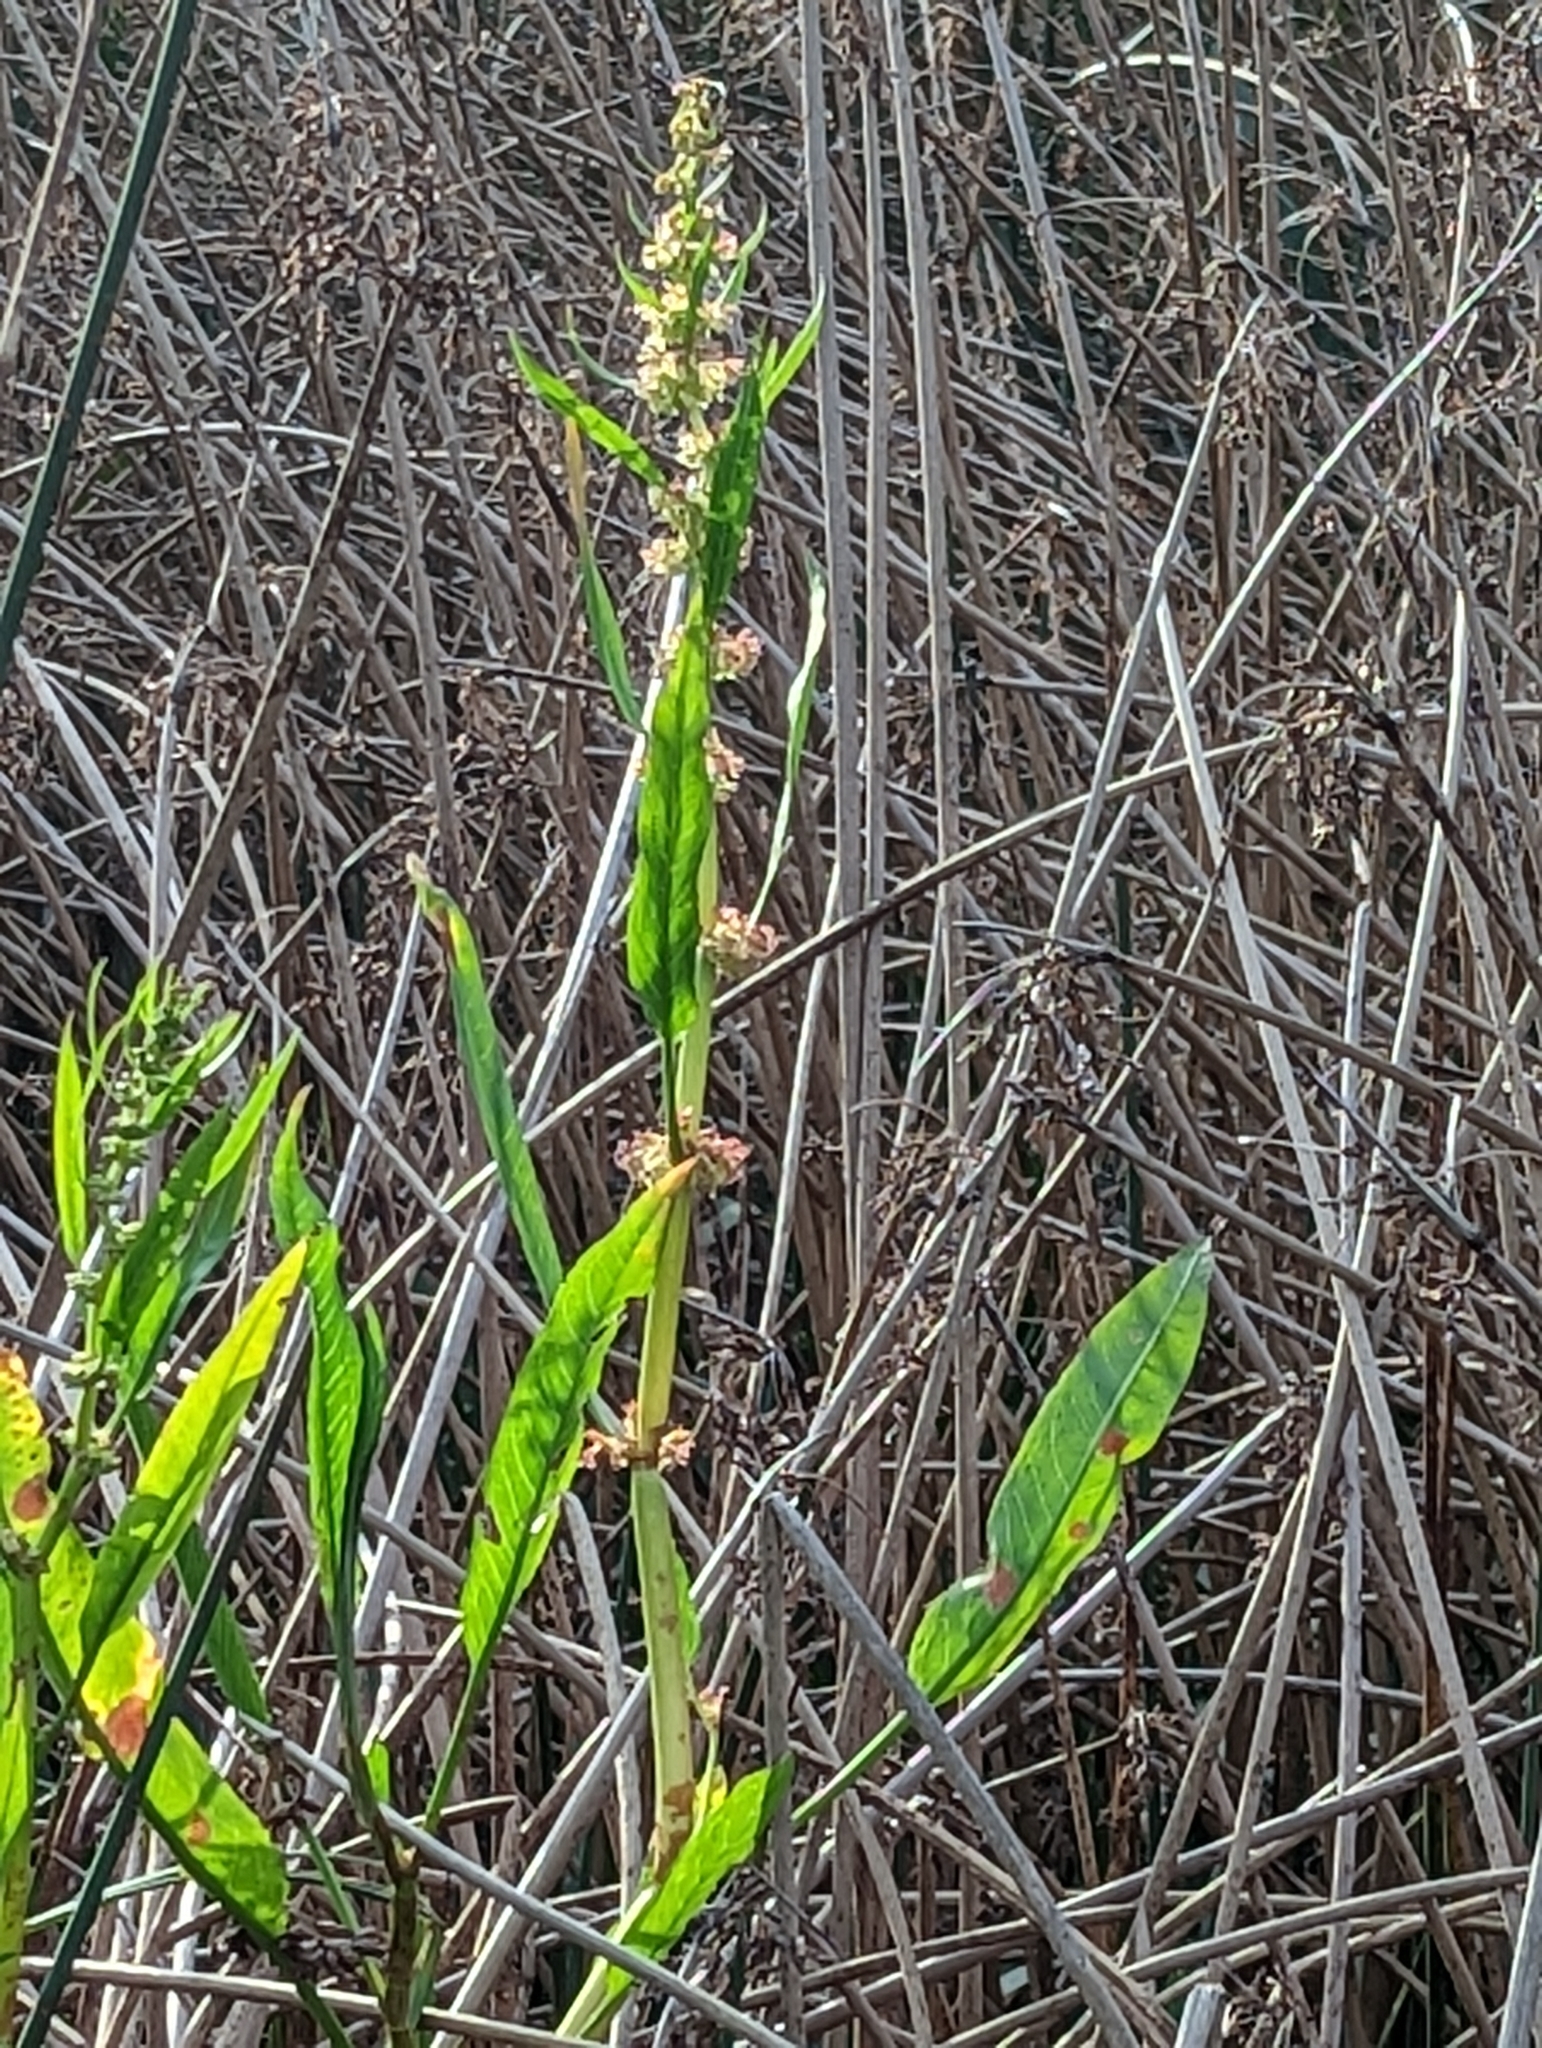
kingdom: Plantae
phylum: Tracheophyta
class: Magnoliopsida
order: Caryophyllales
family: Polygonaceae
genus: Rumex
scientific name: Rumex bidens
